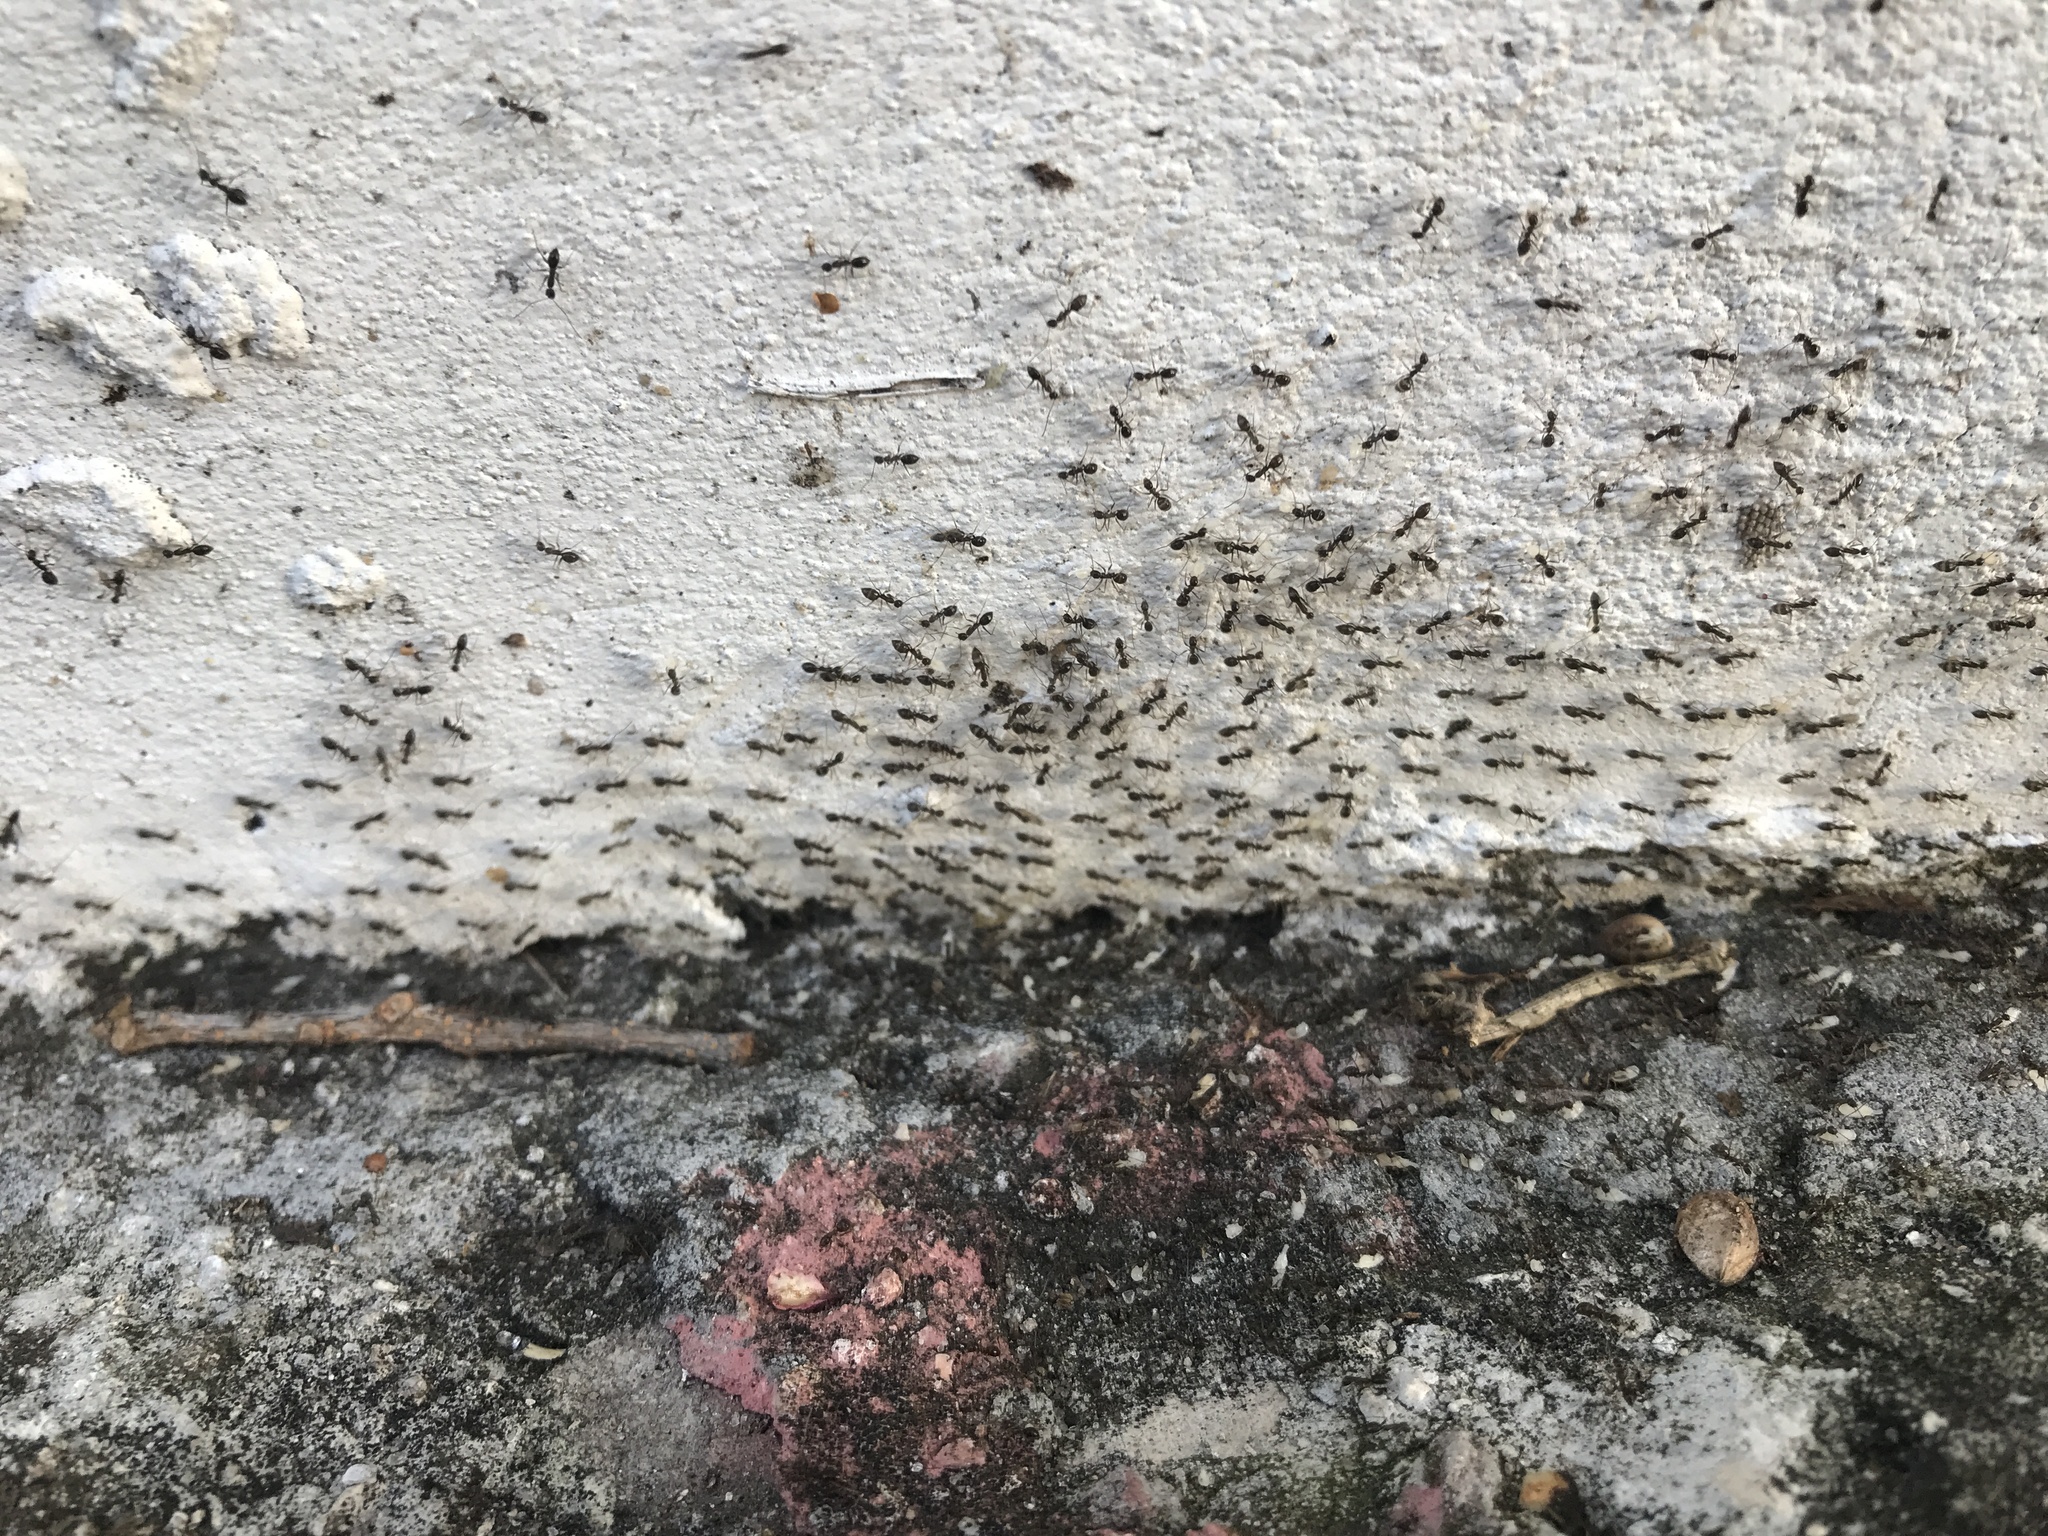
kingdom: Animalia
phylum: Arthropoda
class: Insecta
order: Hymenoptera
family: Formicidae
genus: Paratrechina
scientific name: Paratrechina longicornis
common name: Longhorned crazy ant
